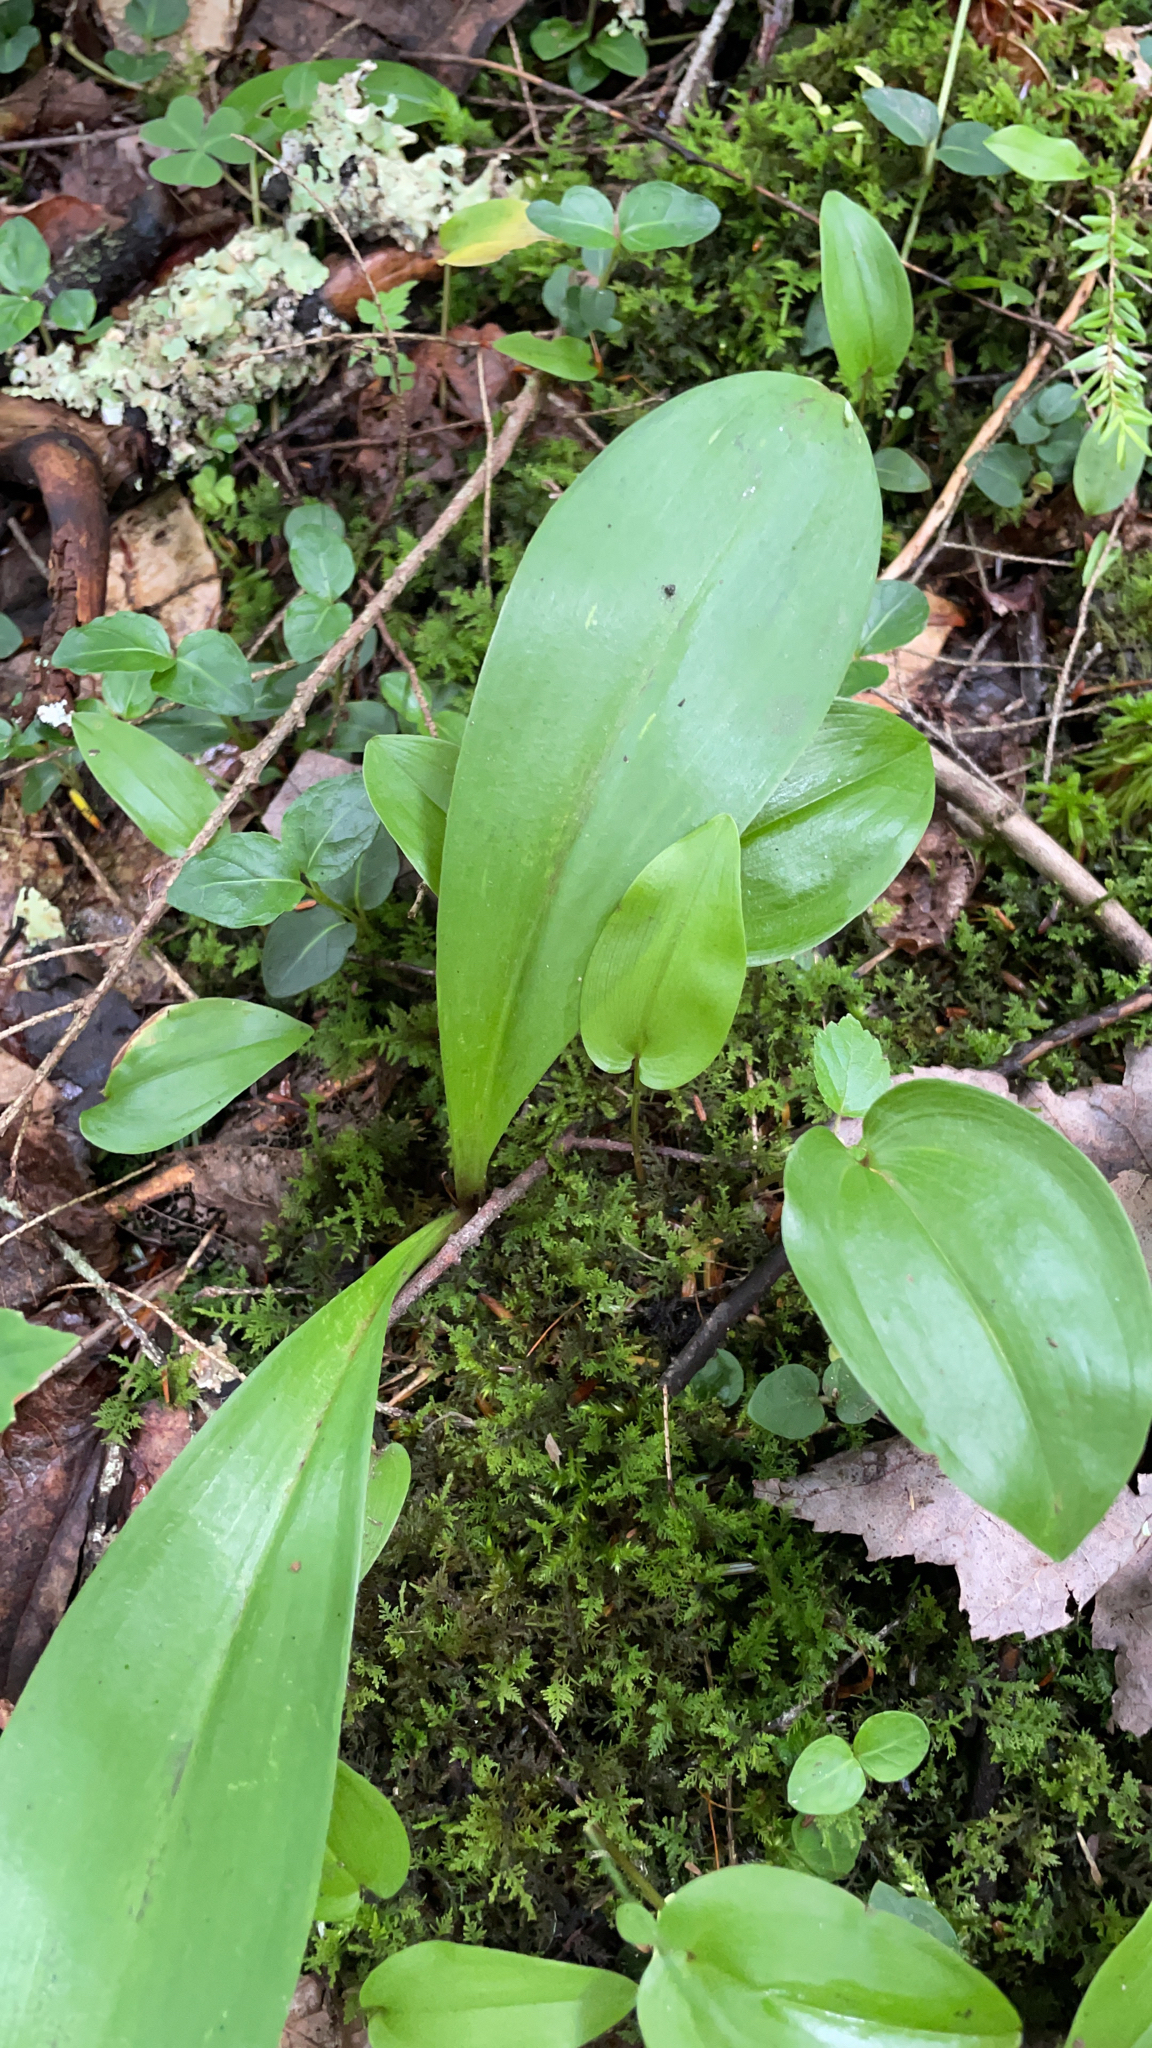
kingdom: Plantae
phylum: Tracheophyta
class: Liliopsida
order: Asparagales
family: Asparagaceae
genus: Maianthemum
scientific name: Maianthemum canadense
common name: False lily-of-the-valley
